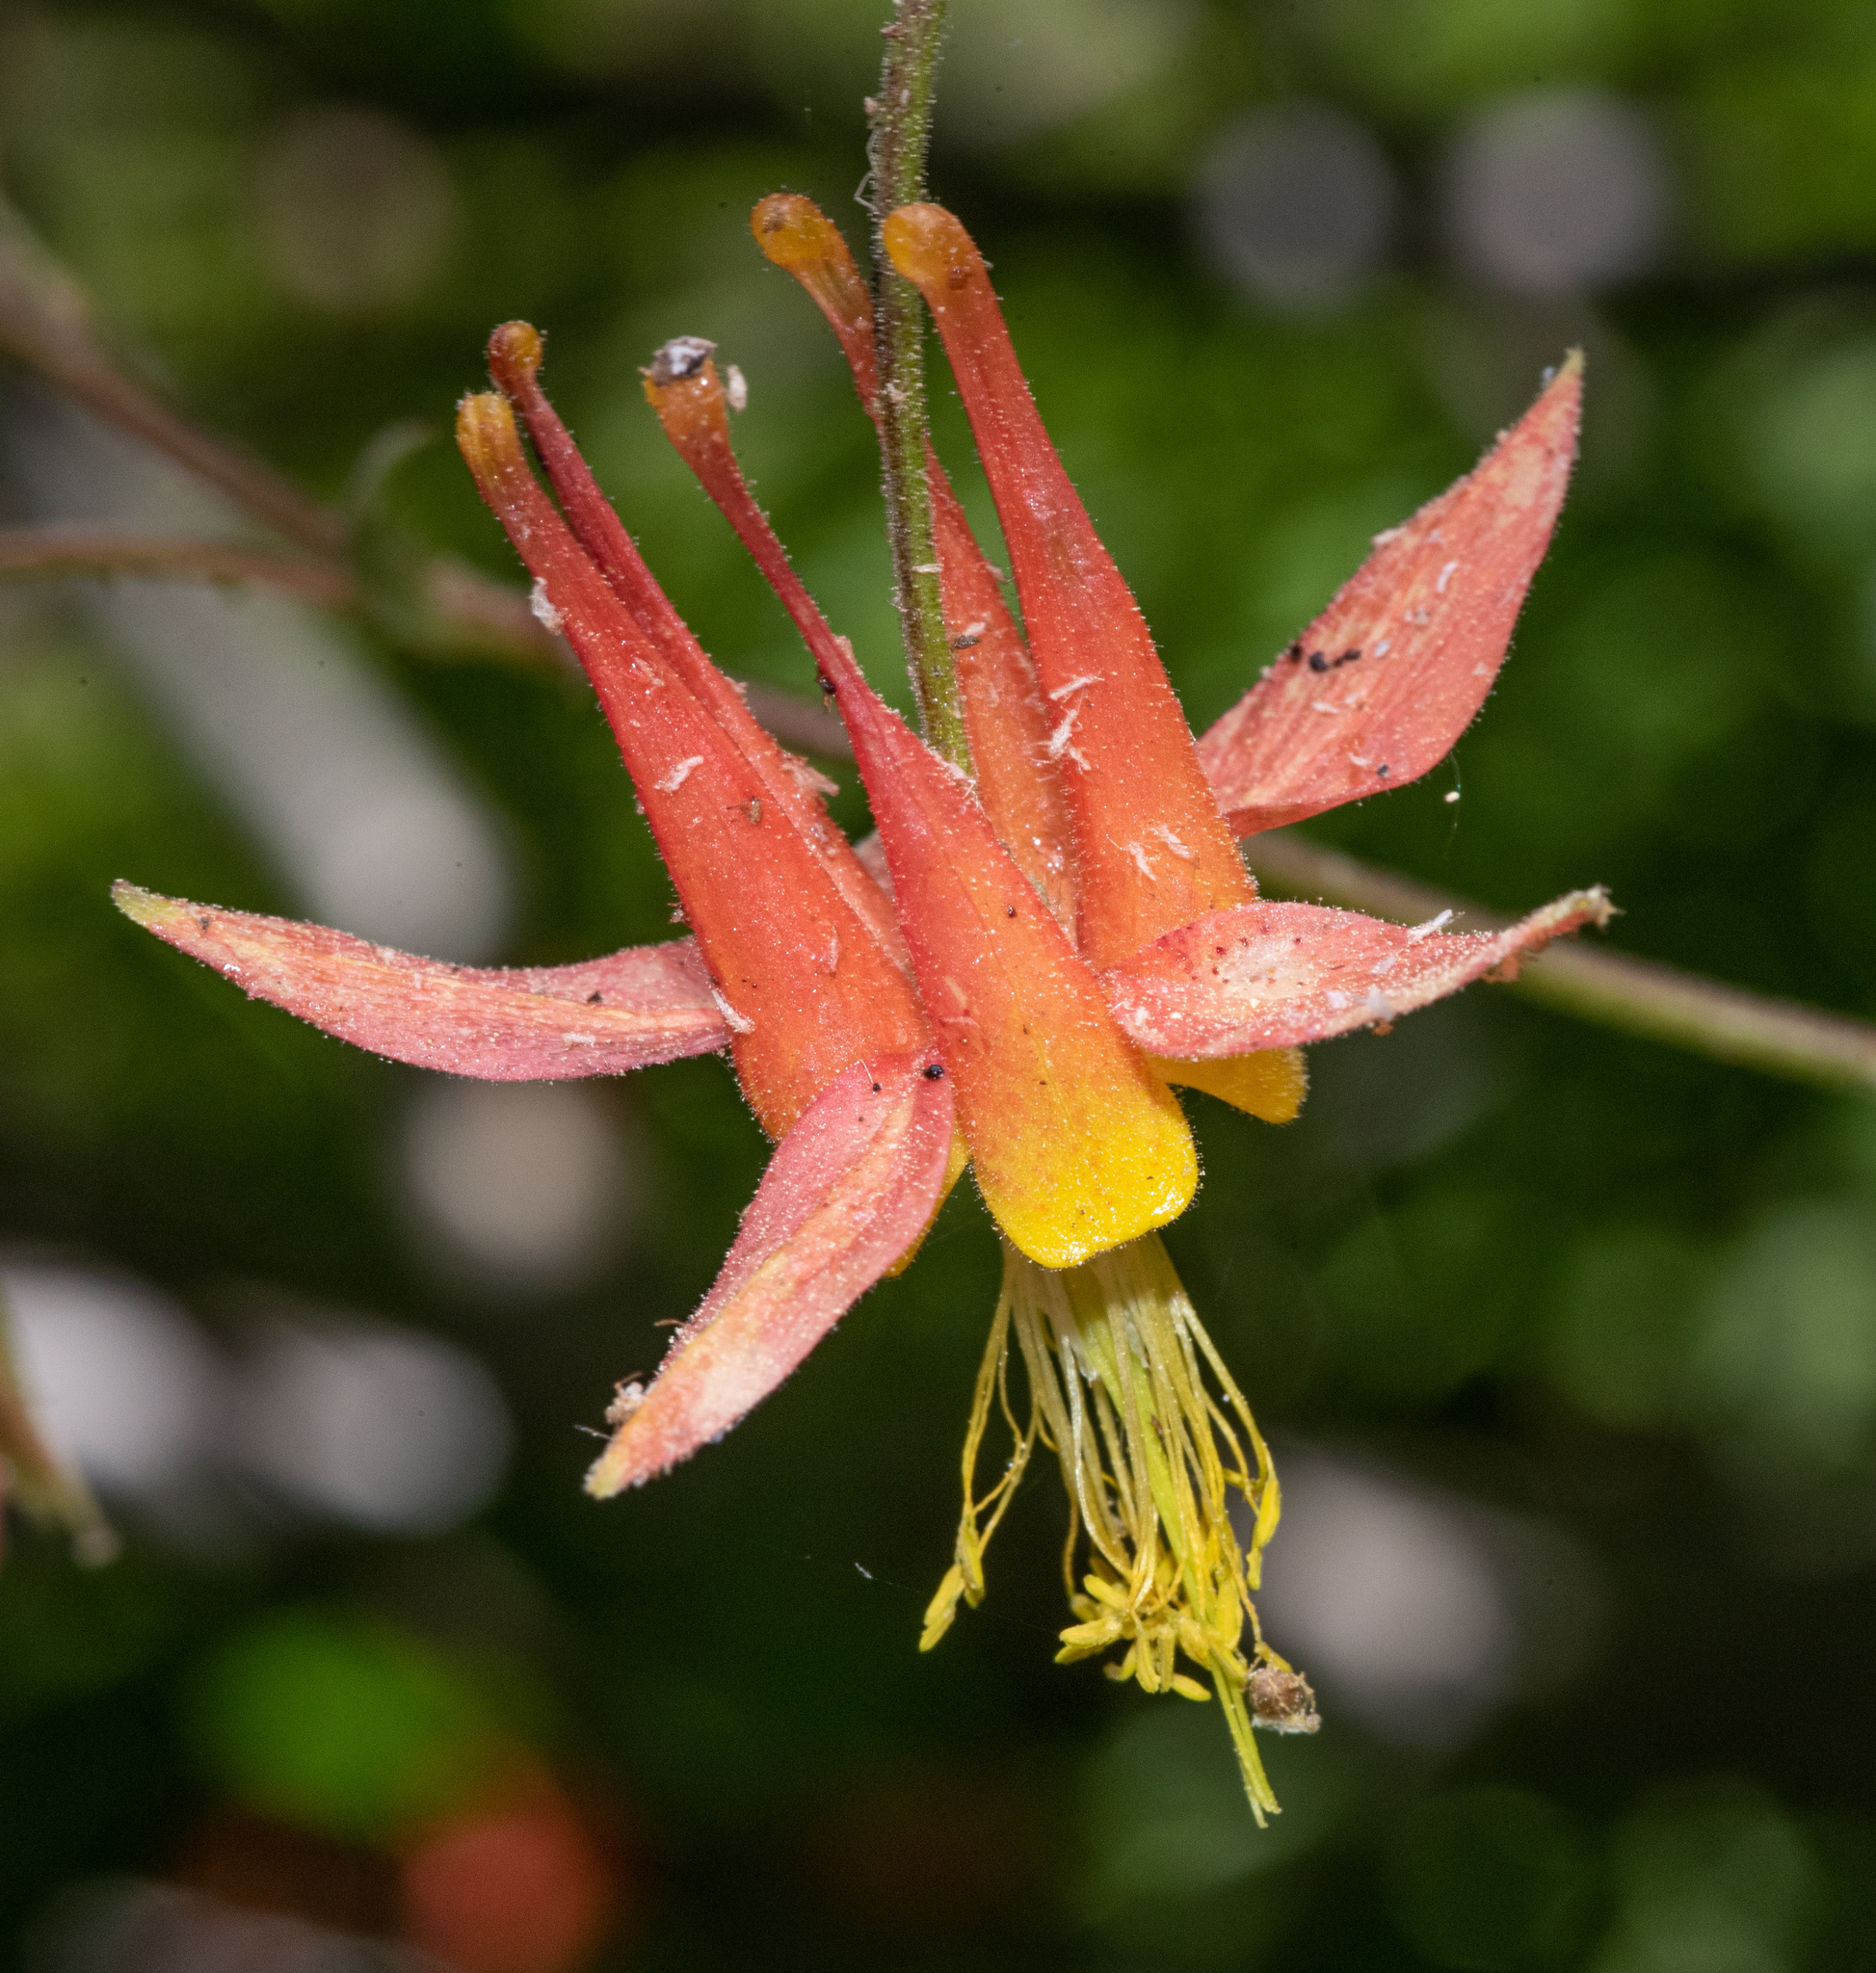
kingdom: Plantae
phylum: Tracheophyta
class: Magnoliopsida
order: Ranunculales
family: Ranunculaceae
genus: Aquilegia
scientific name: Aquilegia formosa
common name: Sitka columbine
